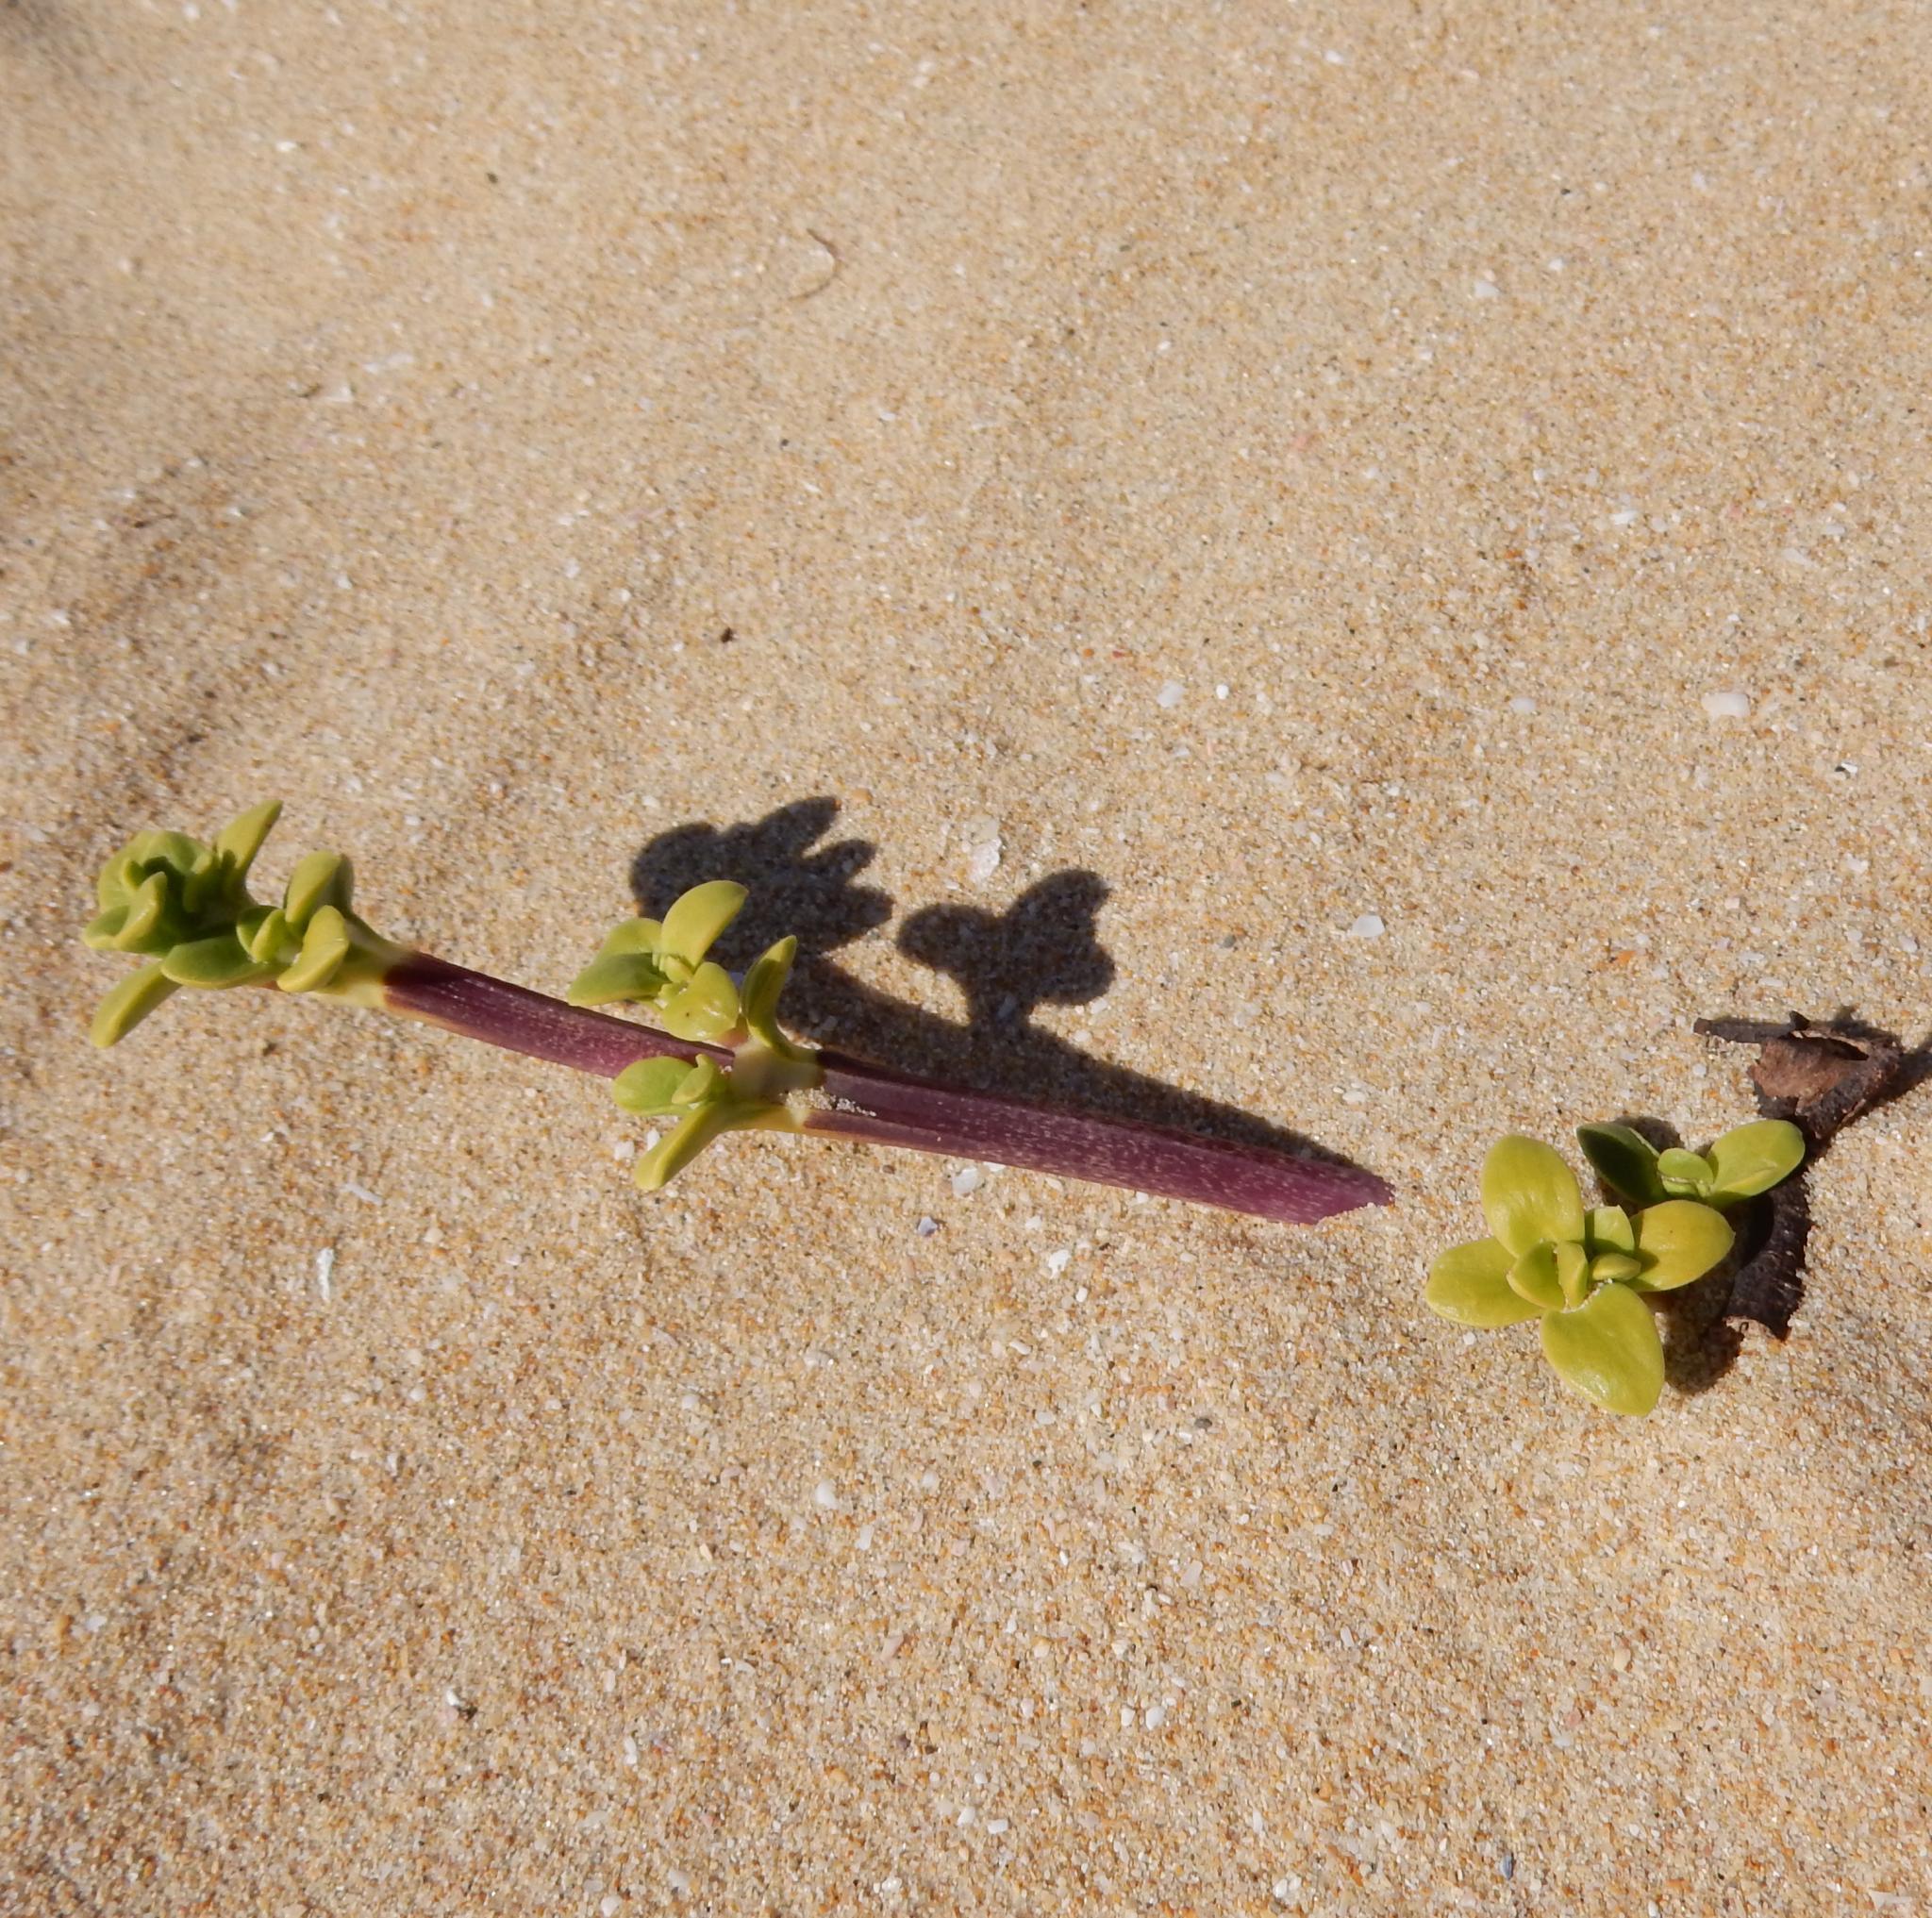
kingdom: Plantae
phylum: Tracheophyta
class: Magnoliopsida
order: Gentianales
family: Rubiaceae
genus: Phylohydrax
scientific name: Phylohydrax carnosa
